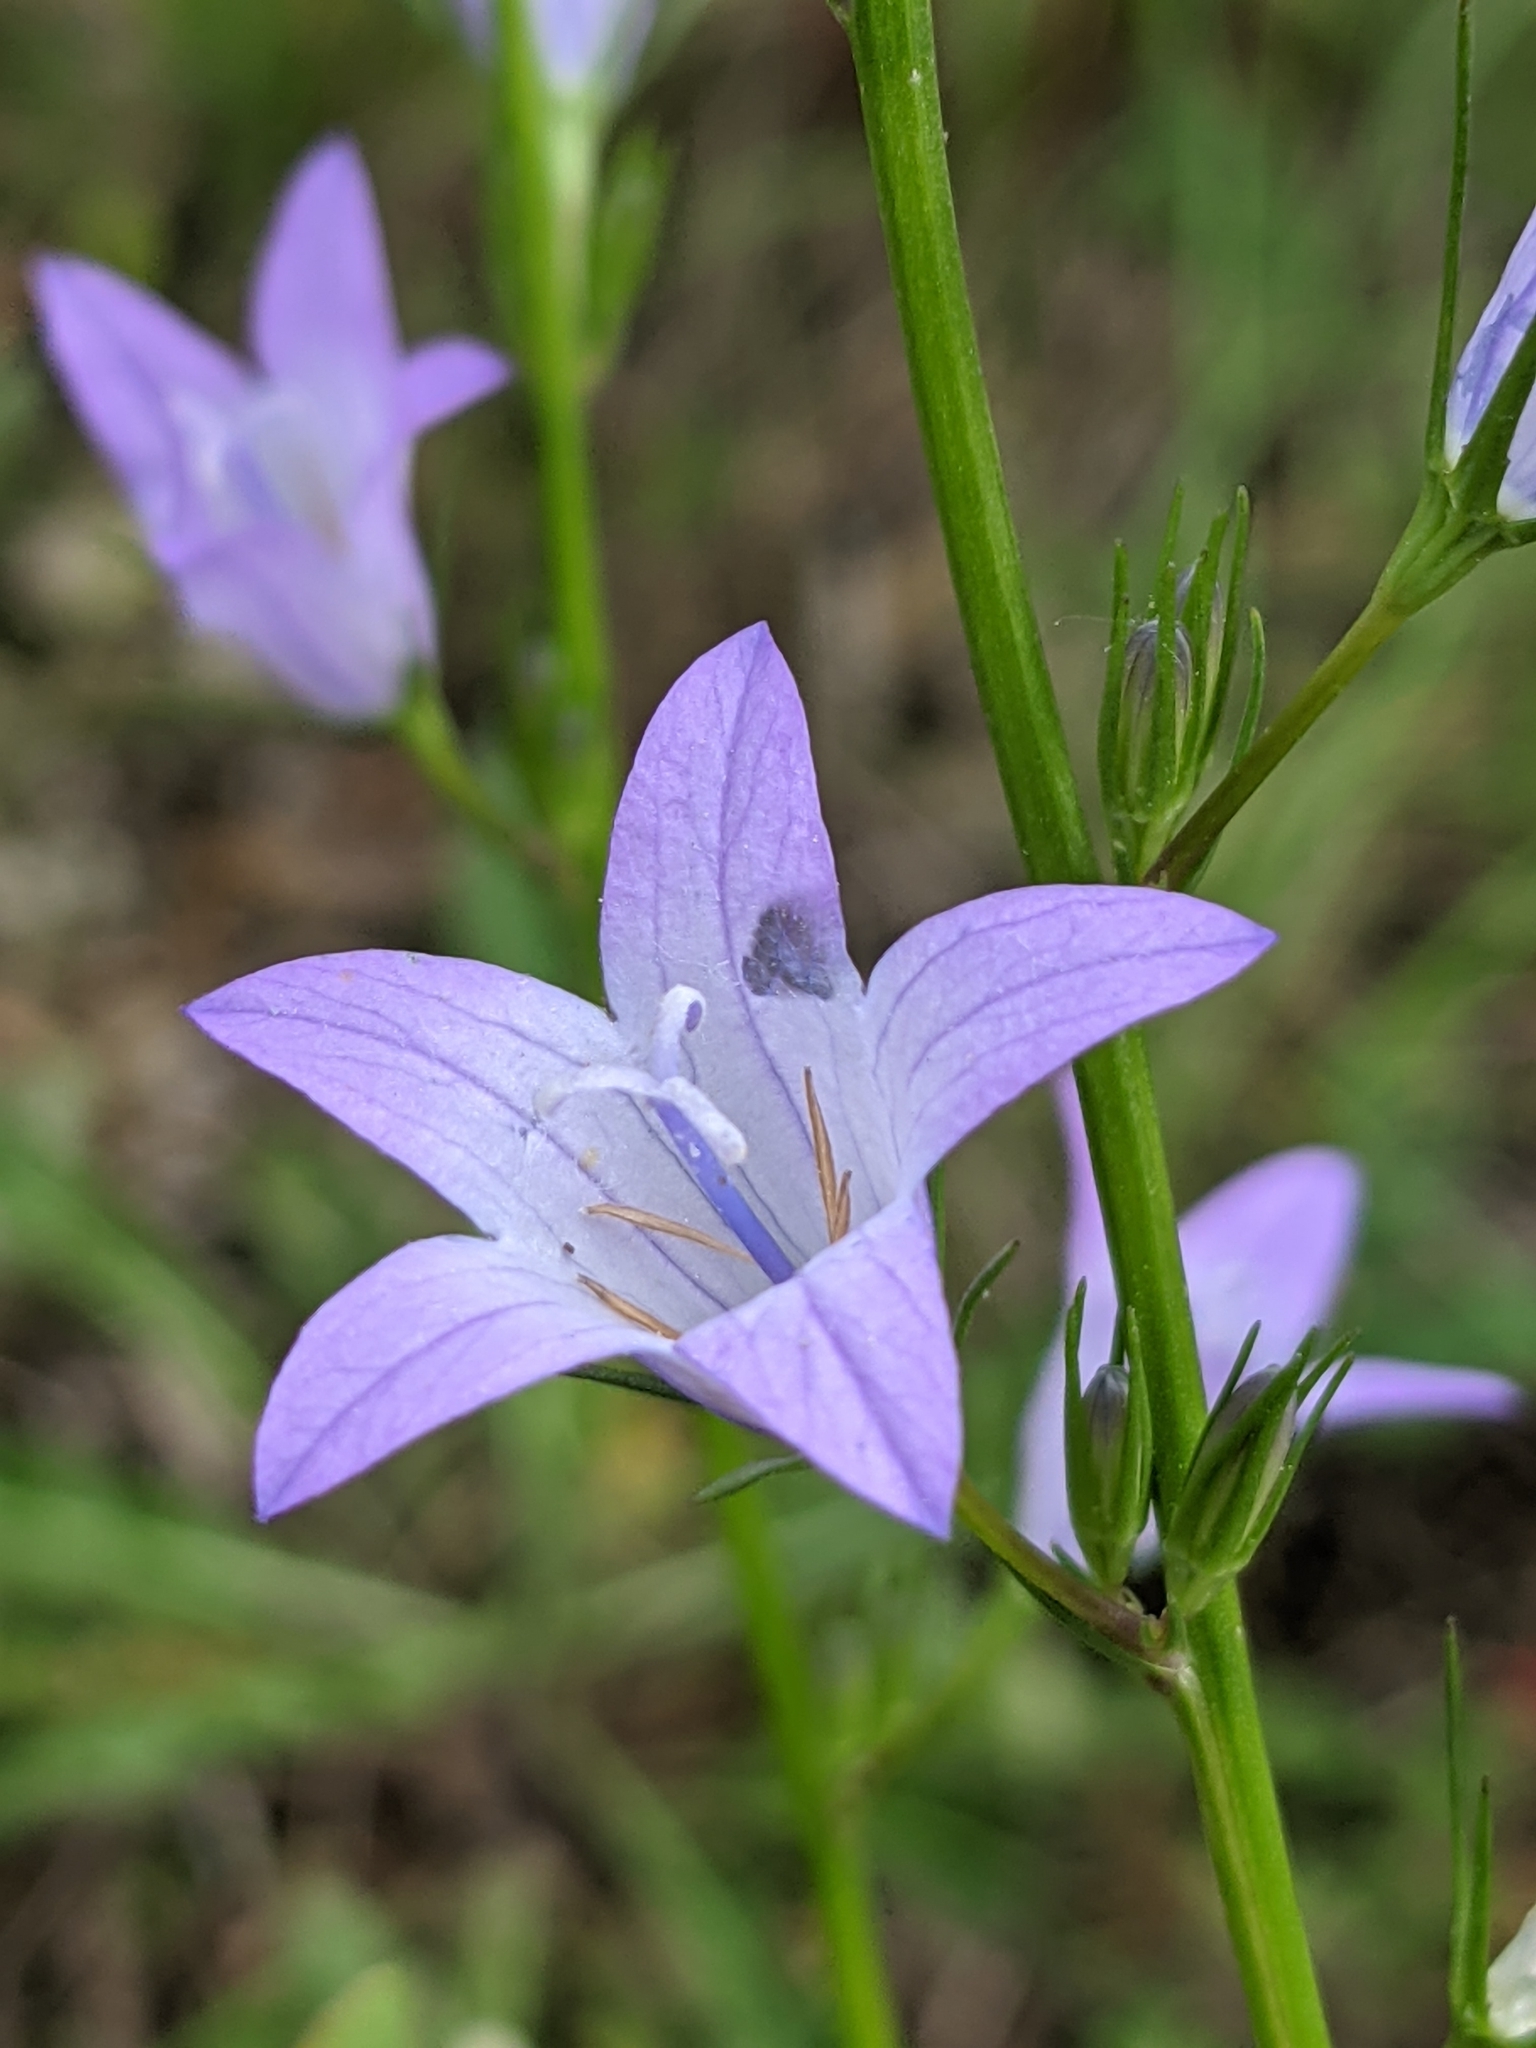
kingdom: Plantae
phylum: Tracheophyta
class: Magnoliopsida
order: Asterales
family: Campanulaceae
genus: Campanula
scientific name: Campanula rapunculus
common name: Rampion bellflower
